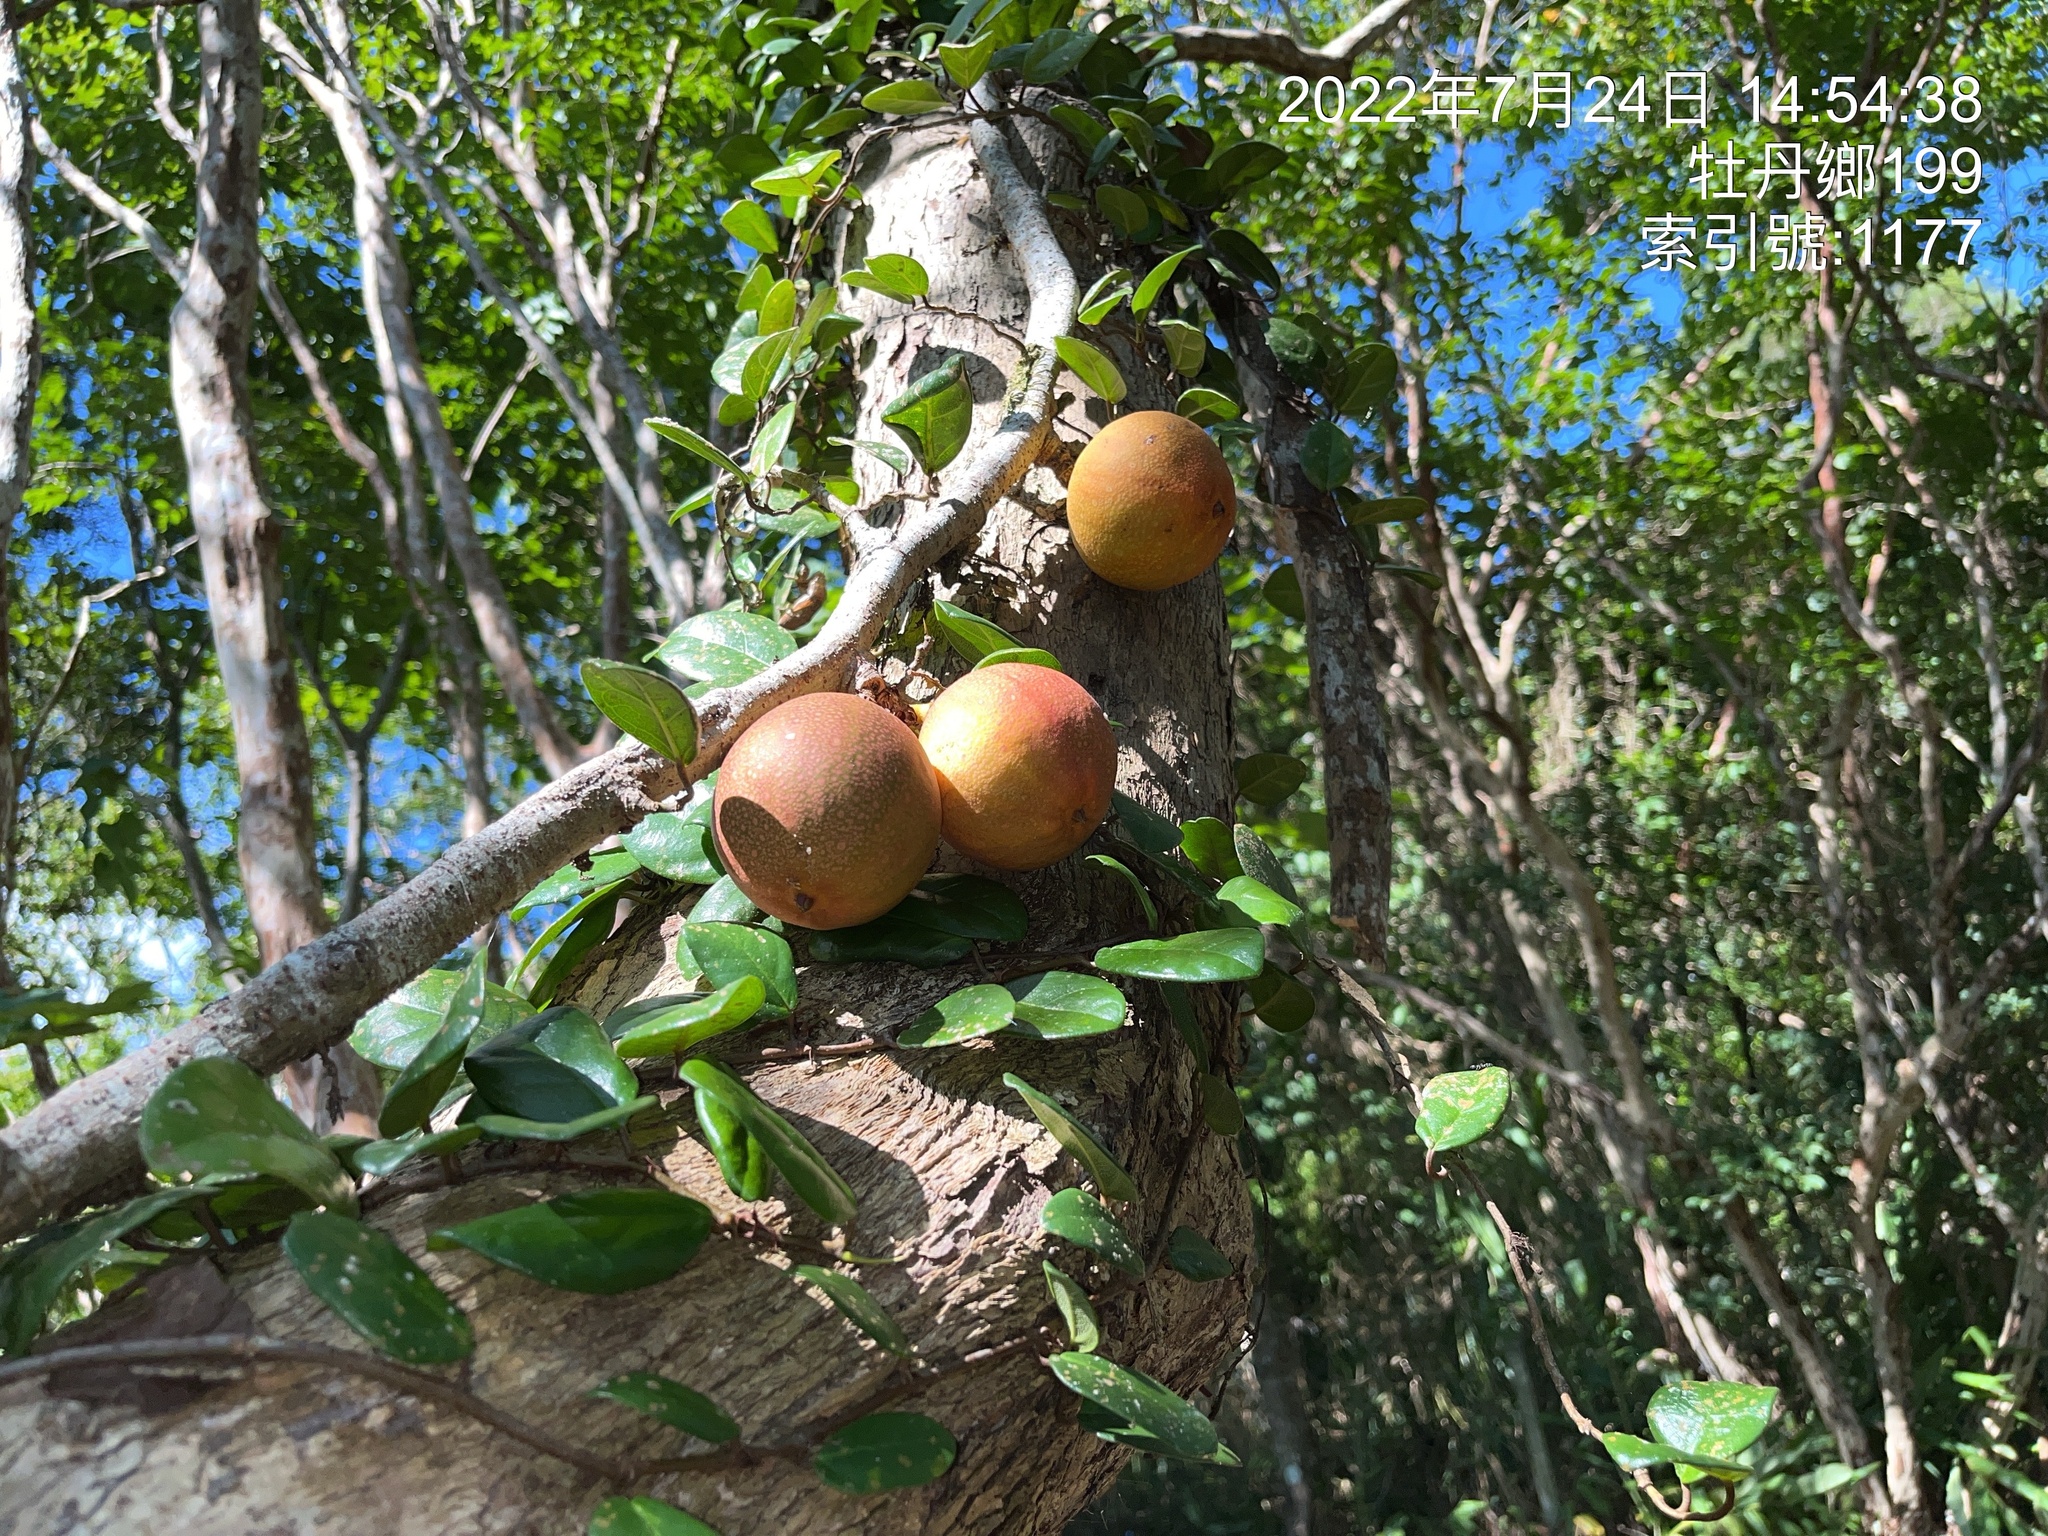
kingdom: Plantae
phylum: Tracheophyta
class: Magnoliopsida
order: Rosales
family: Moraceae
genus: Ficus
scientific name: Ficus punctata
